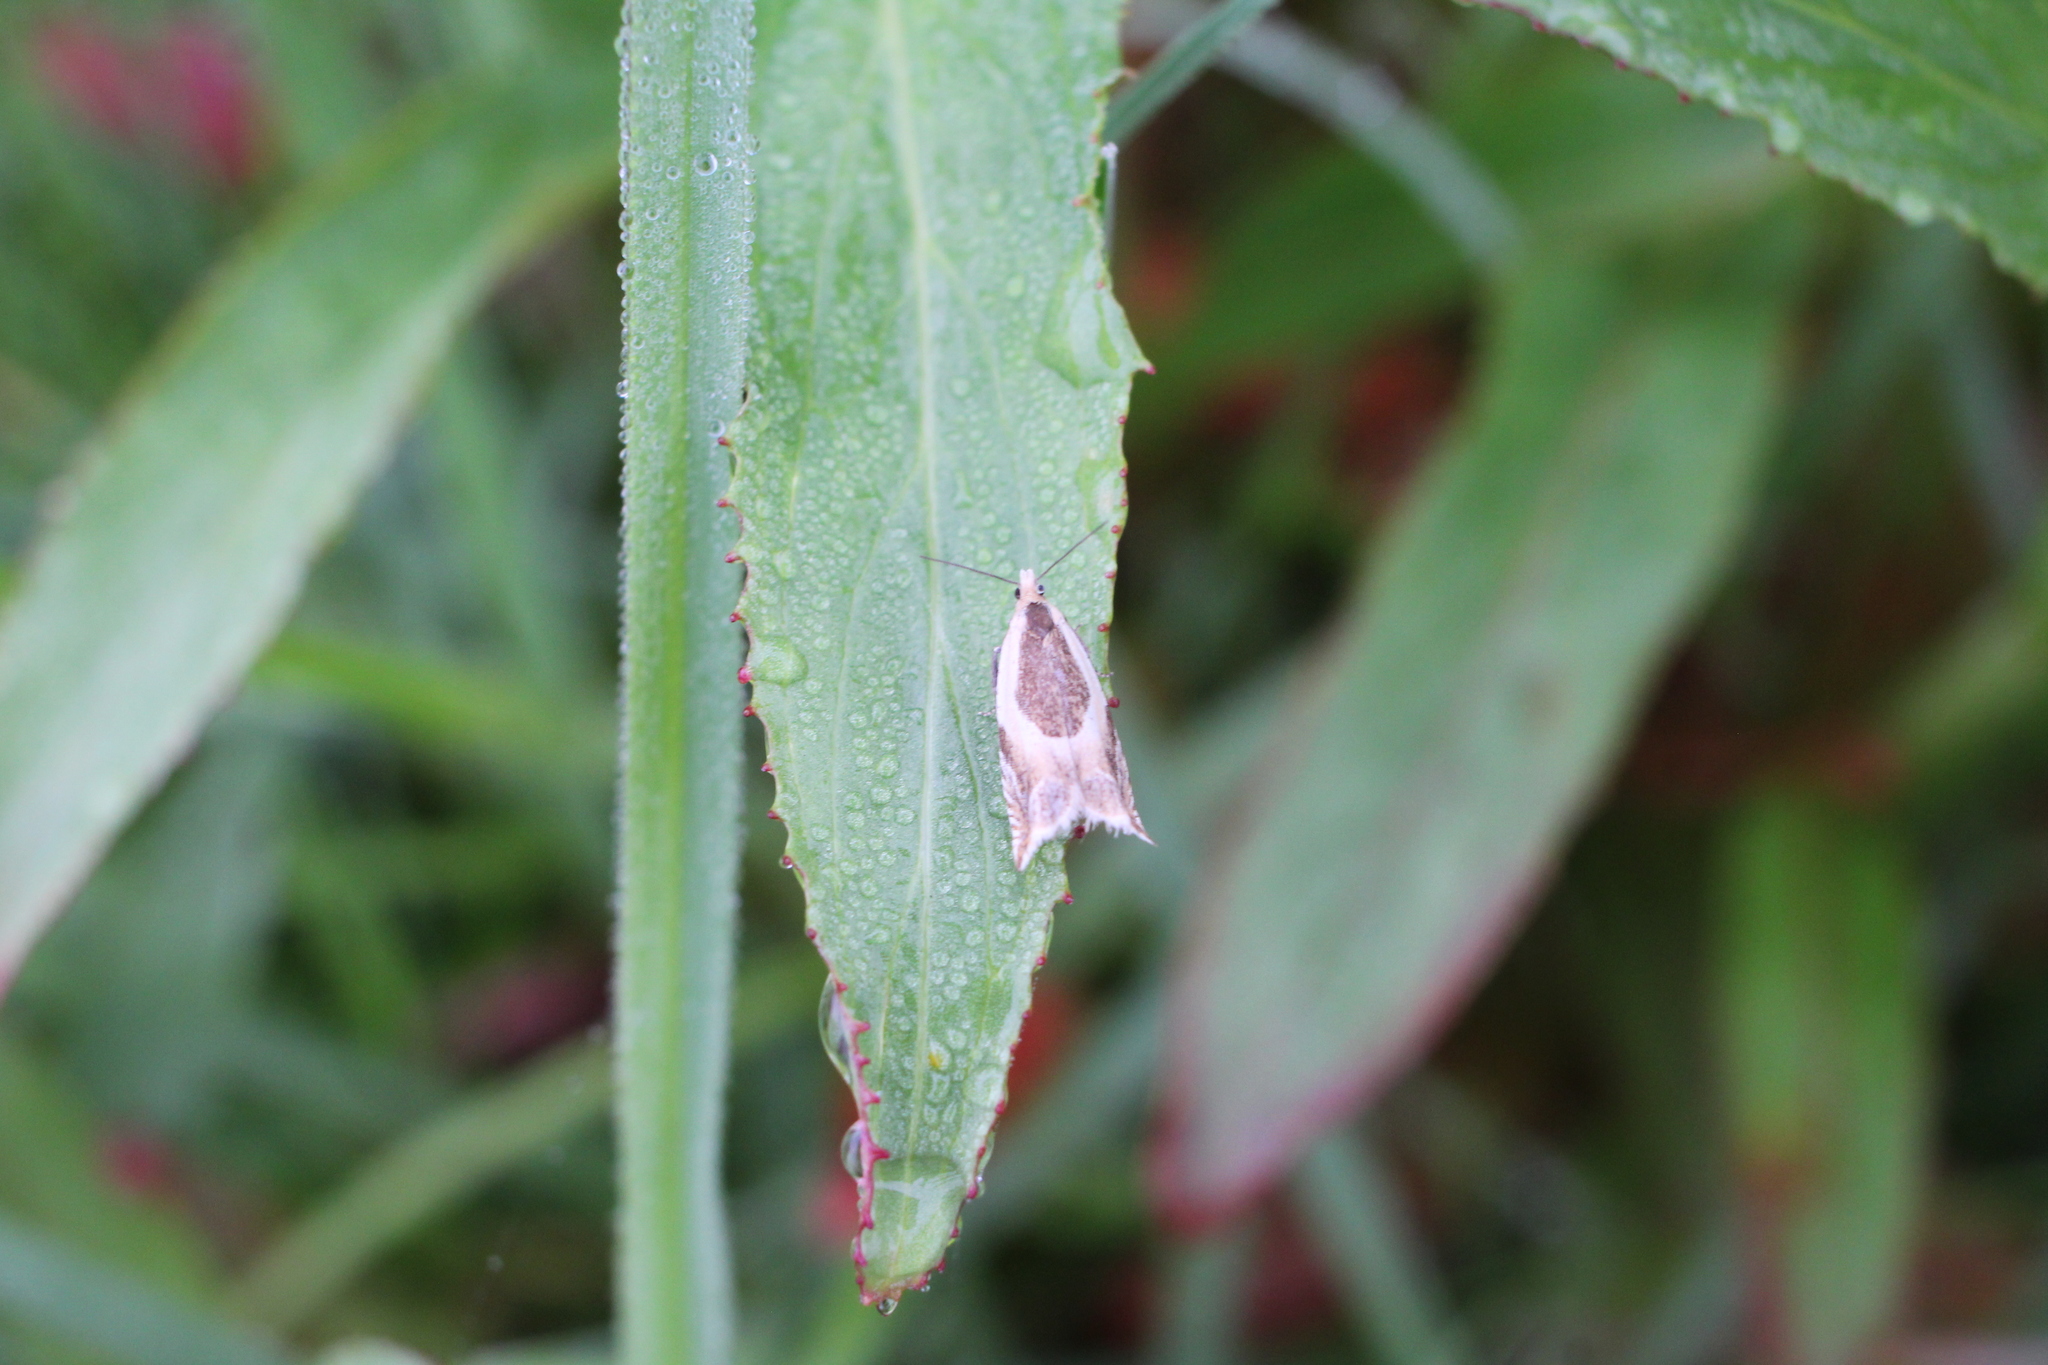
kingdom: Animalia
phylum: Arthropoda
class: Insecta
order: Lepidoptera
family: Tortricidae
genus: Ancylis
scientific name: Ancylis badiana
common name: Common roller
